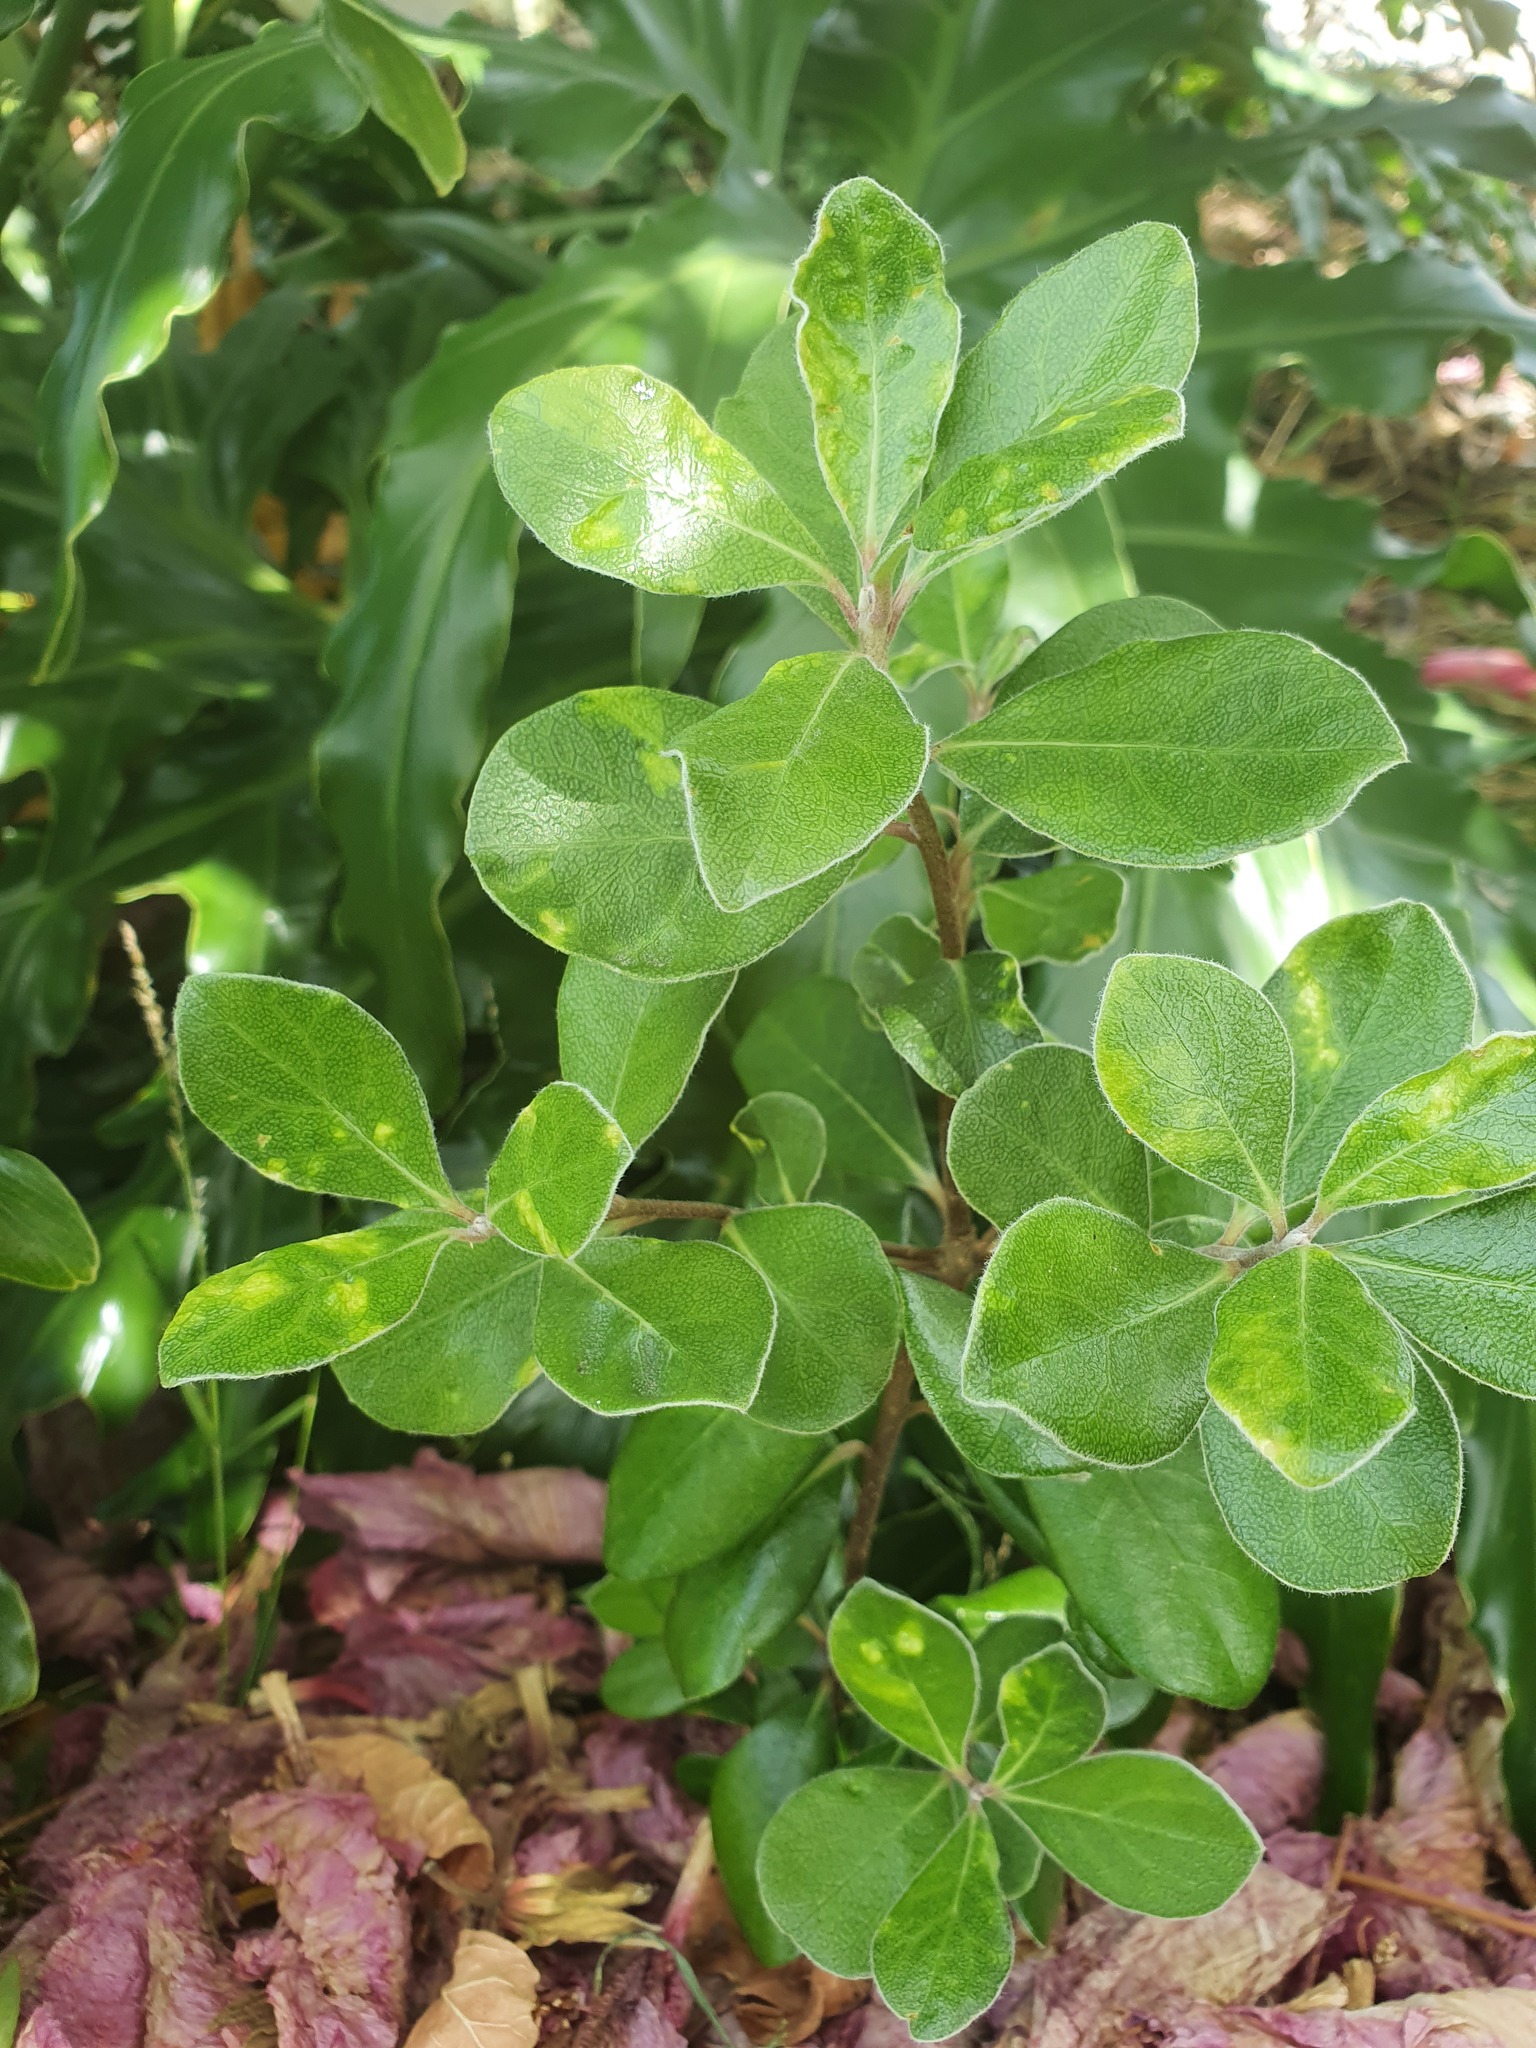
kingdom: Plantae
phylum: Tracheophyta
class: Magnoliopsida
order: Apiales
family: Pittosporaceae
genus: Pittosporum
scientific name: Pittosporum crassifolium
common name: Karo
